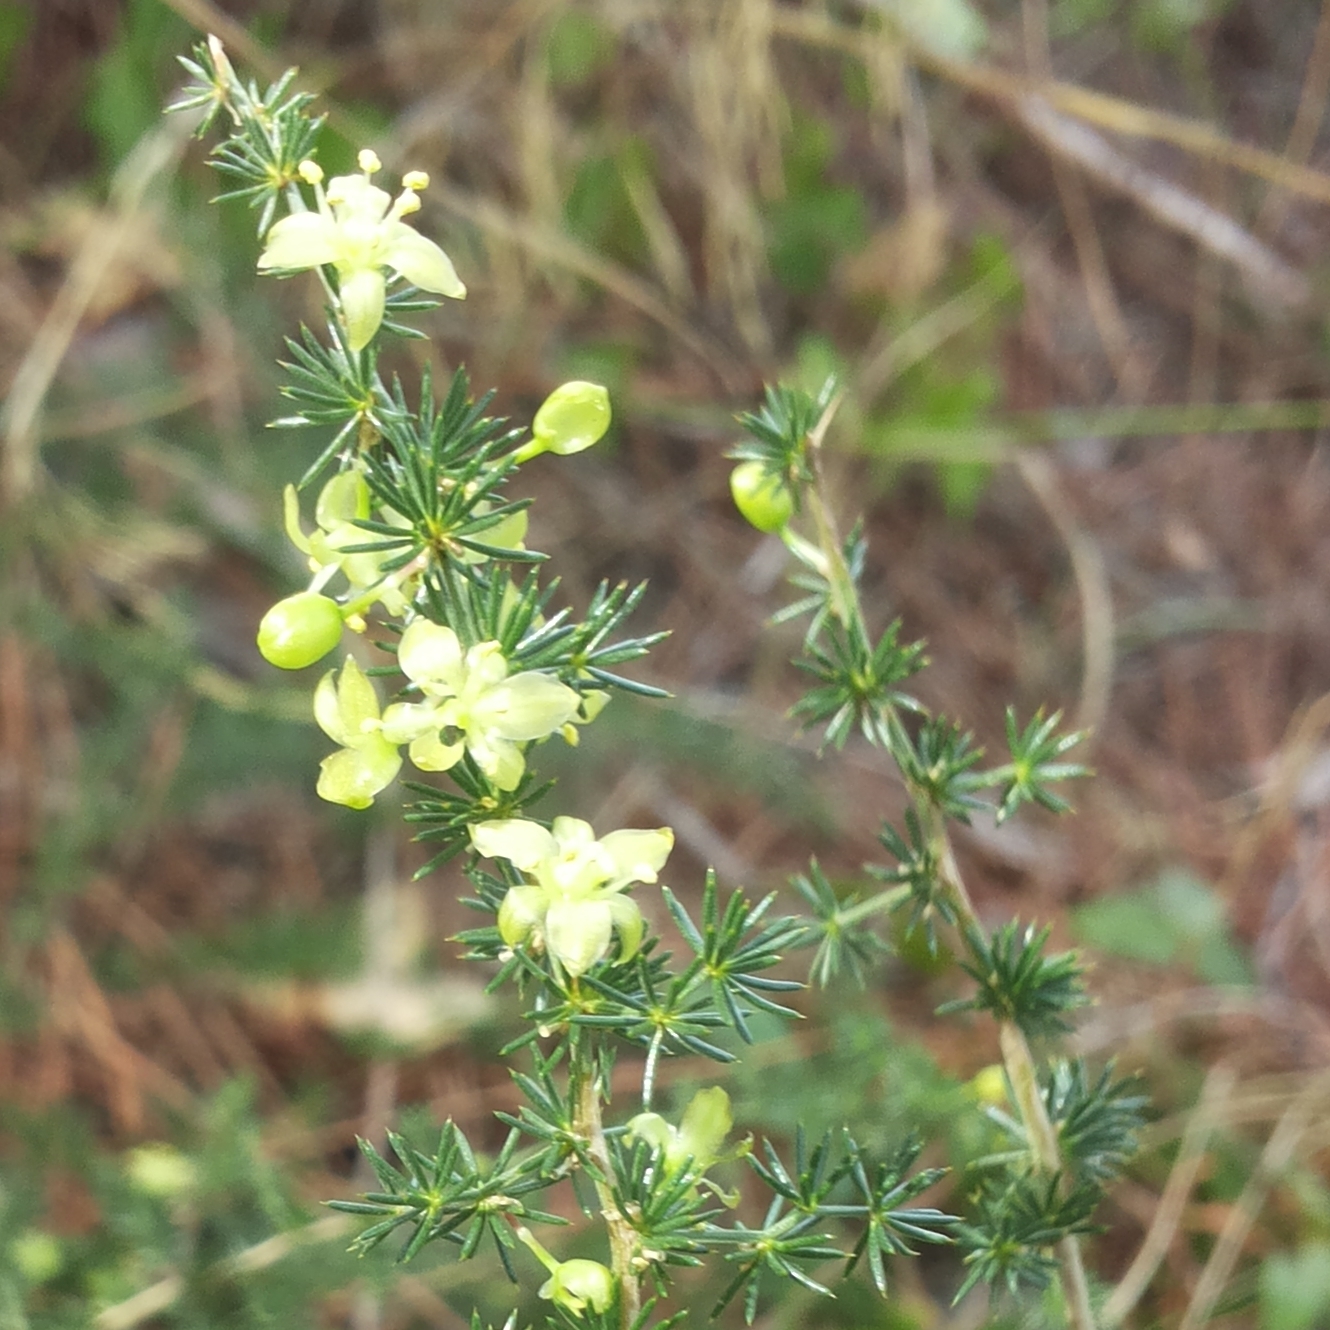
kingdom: Plantae
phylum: Tracheophyta
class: Liliopsida
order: Asparagales
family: Asparagaceae
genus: Asparagus
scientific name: Asparagus acutifolius
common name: Wild asparagus
